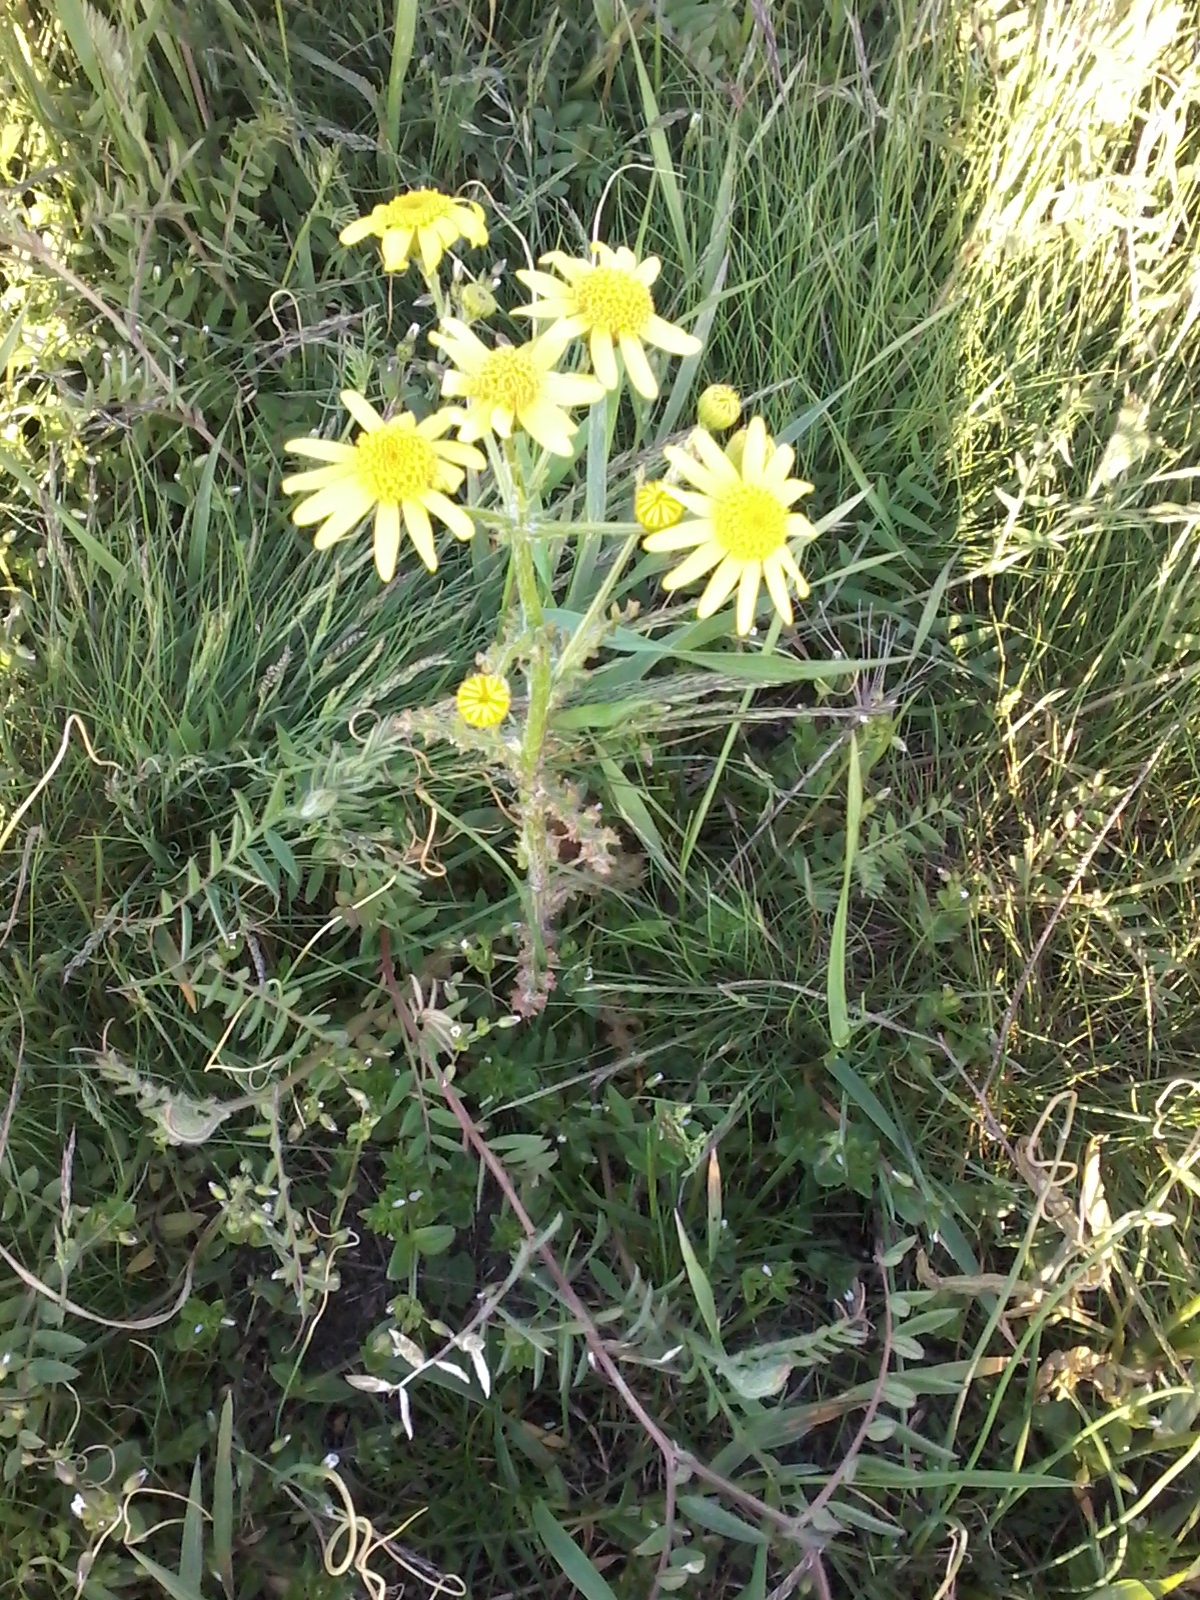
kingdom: Plantae
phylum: Tracheophyta
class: Magnoliopsida
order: Asterales
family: Asteraceae
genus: Senecio
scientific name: Senecio vernalis
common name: Eastern groundsel
